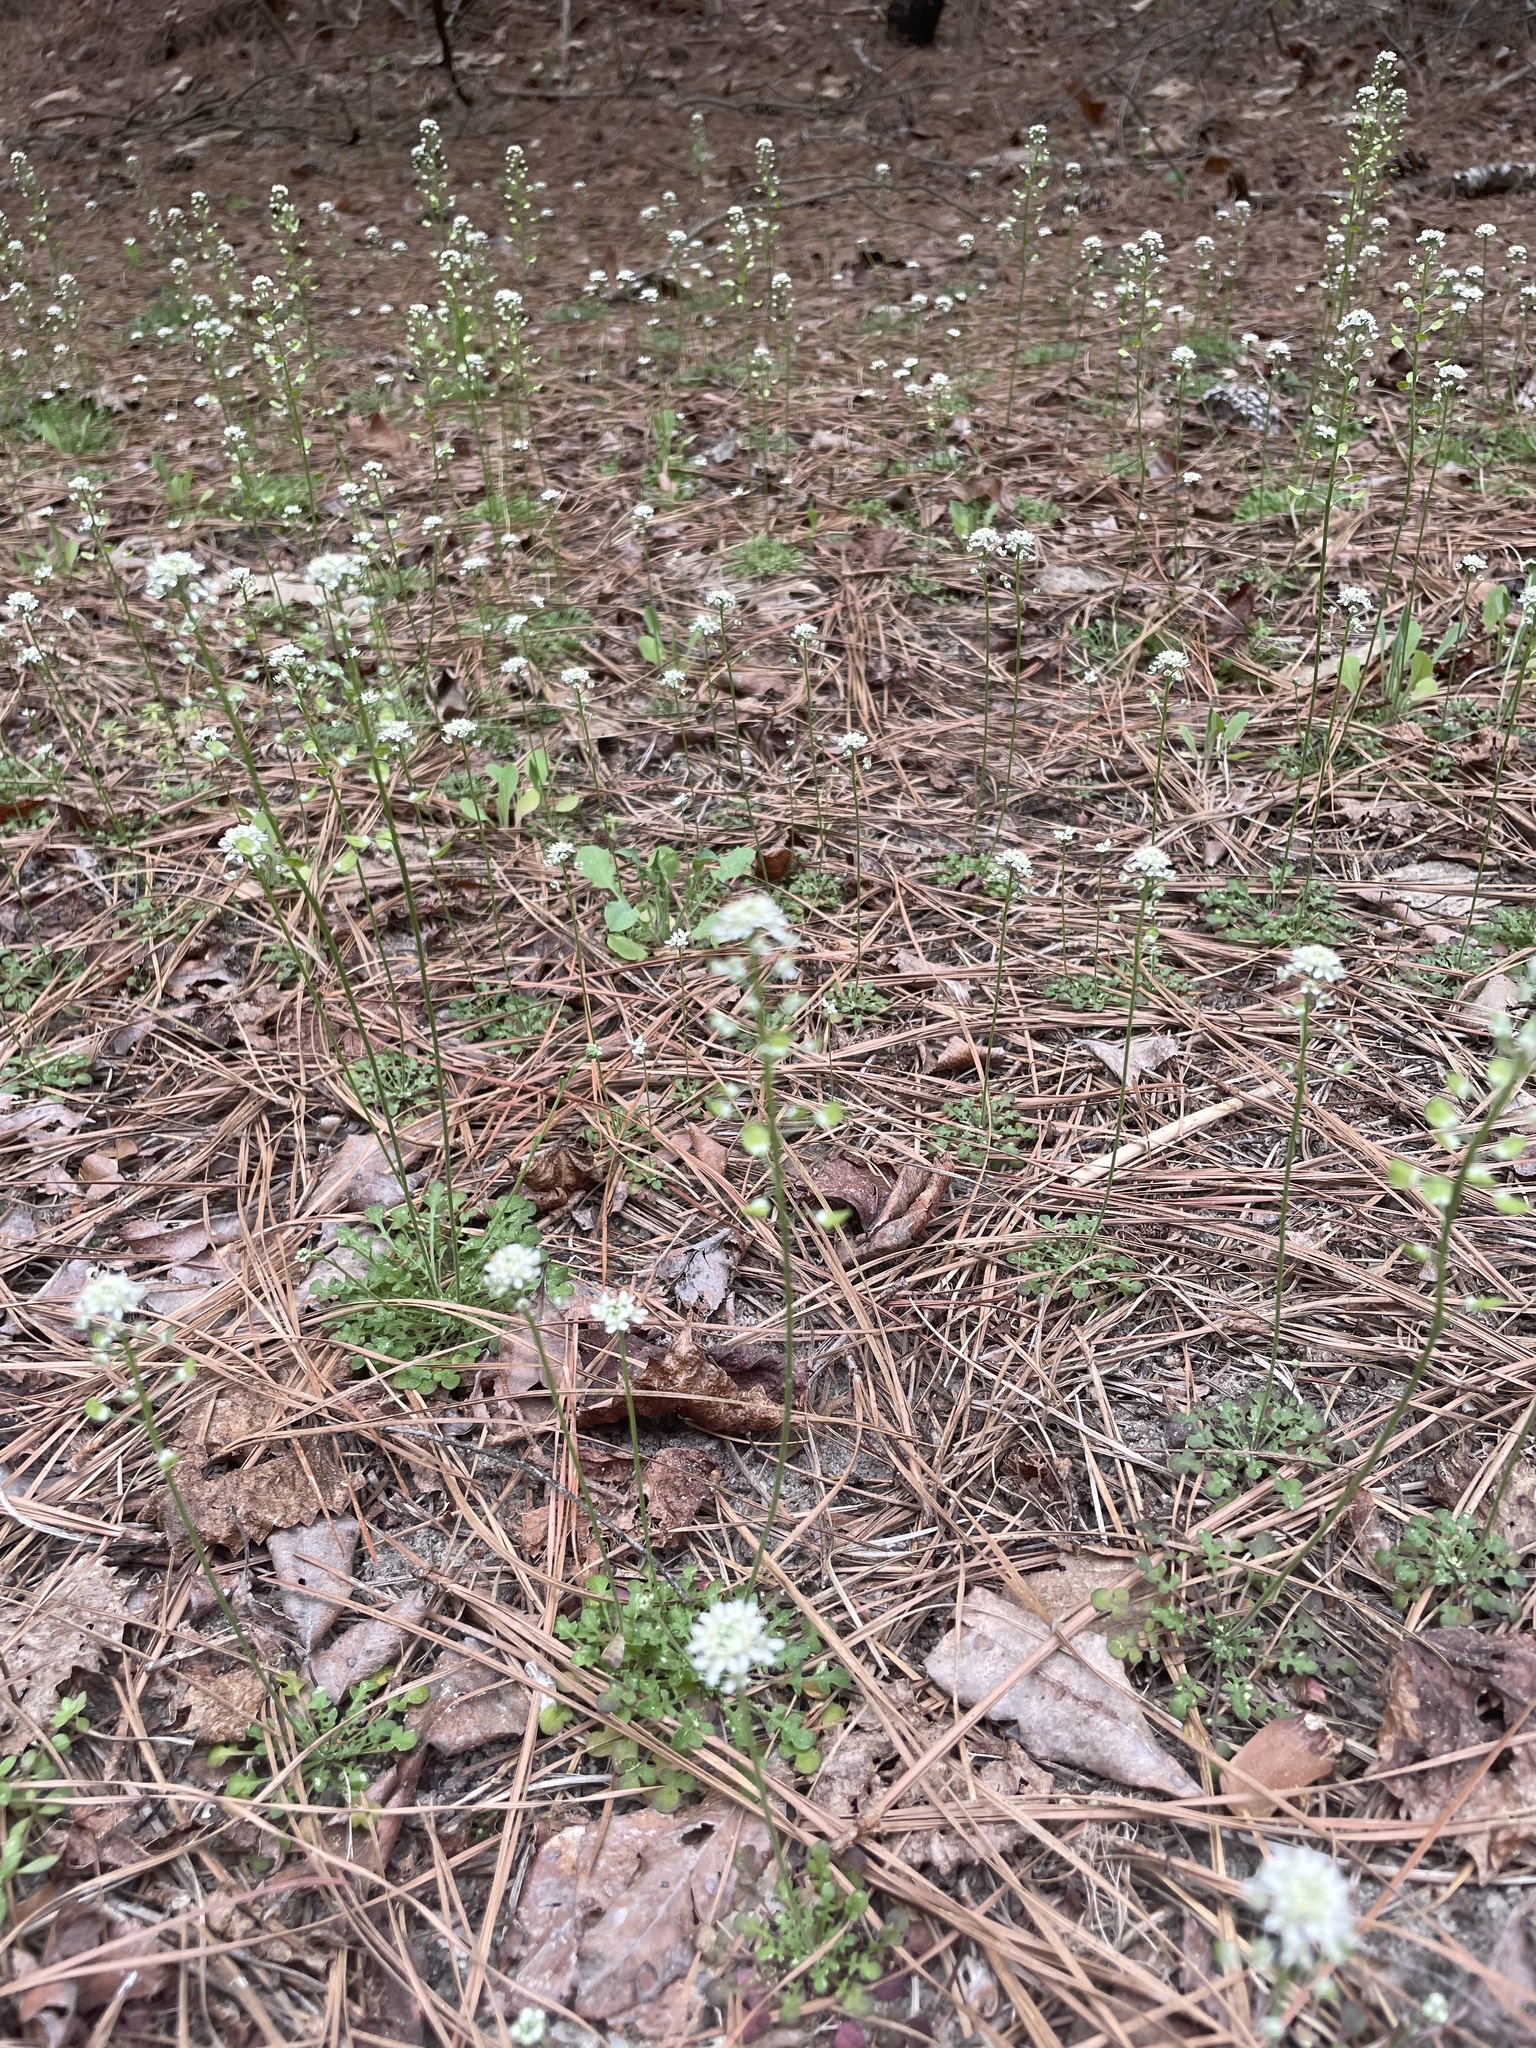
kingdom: Plantae
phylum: Tracheophyta
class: Magnoliopsida
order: Brassicales
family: Brassicaceae
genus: Teesdalia
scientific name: Teesdalia nudicaulis
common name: Shepherd's cress
